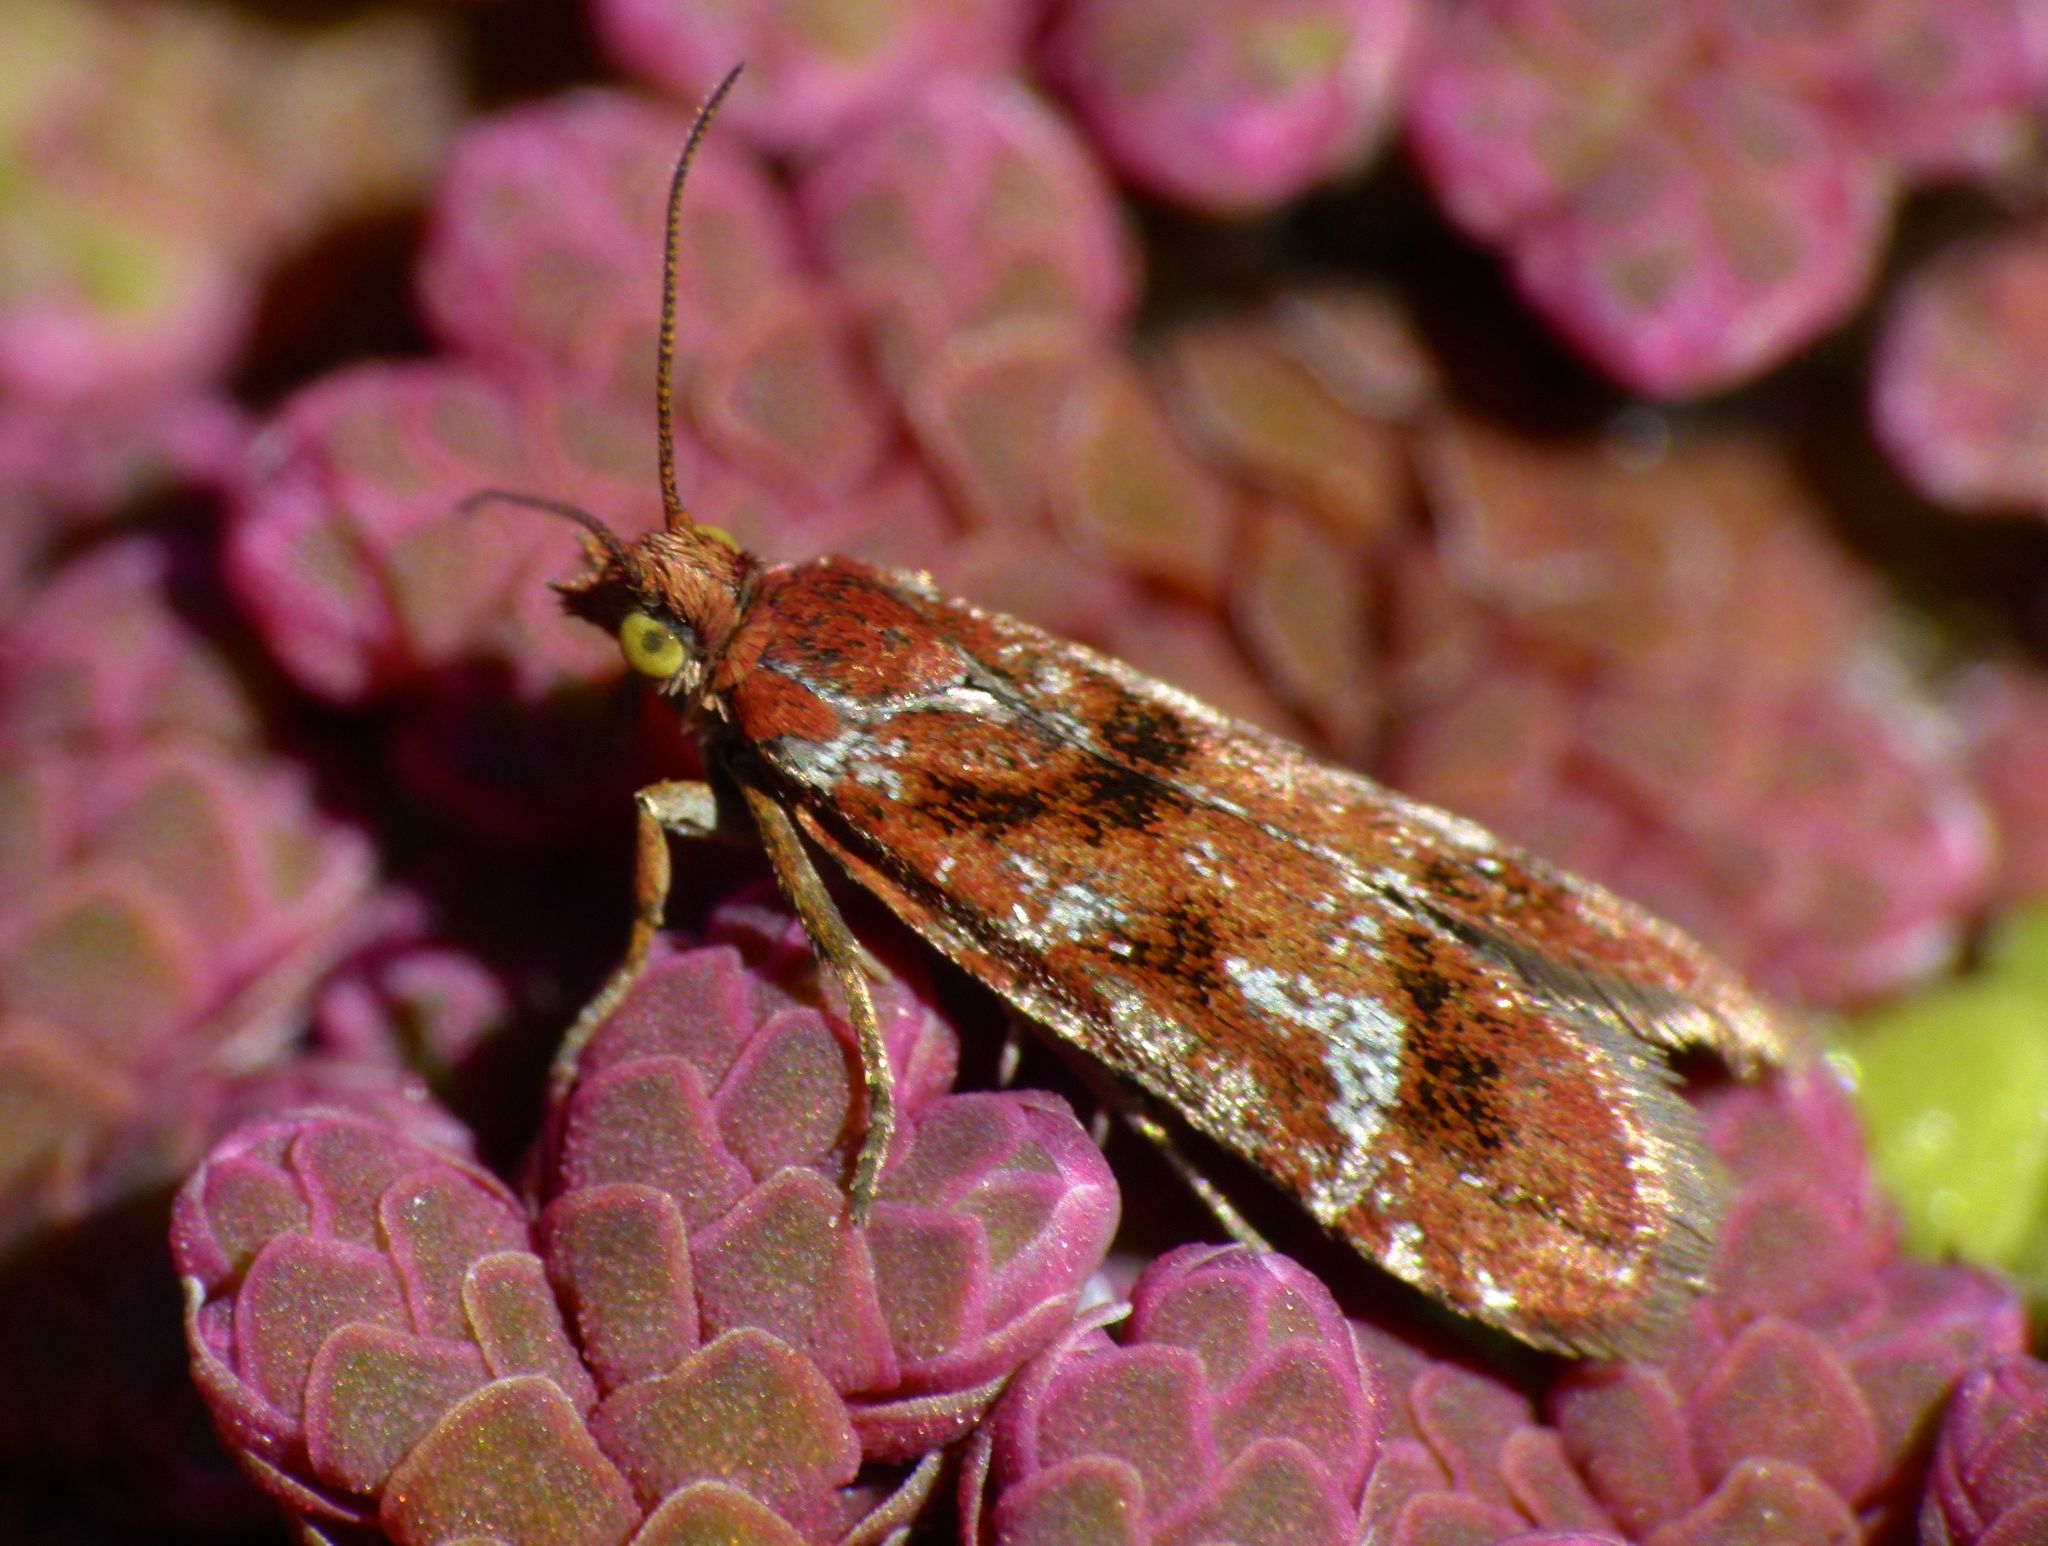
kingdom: Animalia
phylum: Arthropoda
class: Insecta
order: Lepidoptera
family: Tortricidae
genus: Protithona
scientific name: Protithona fugitivana
